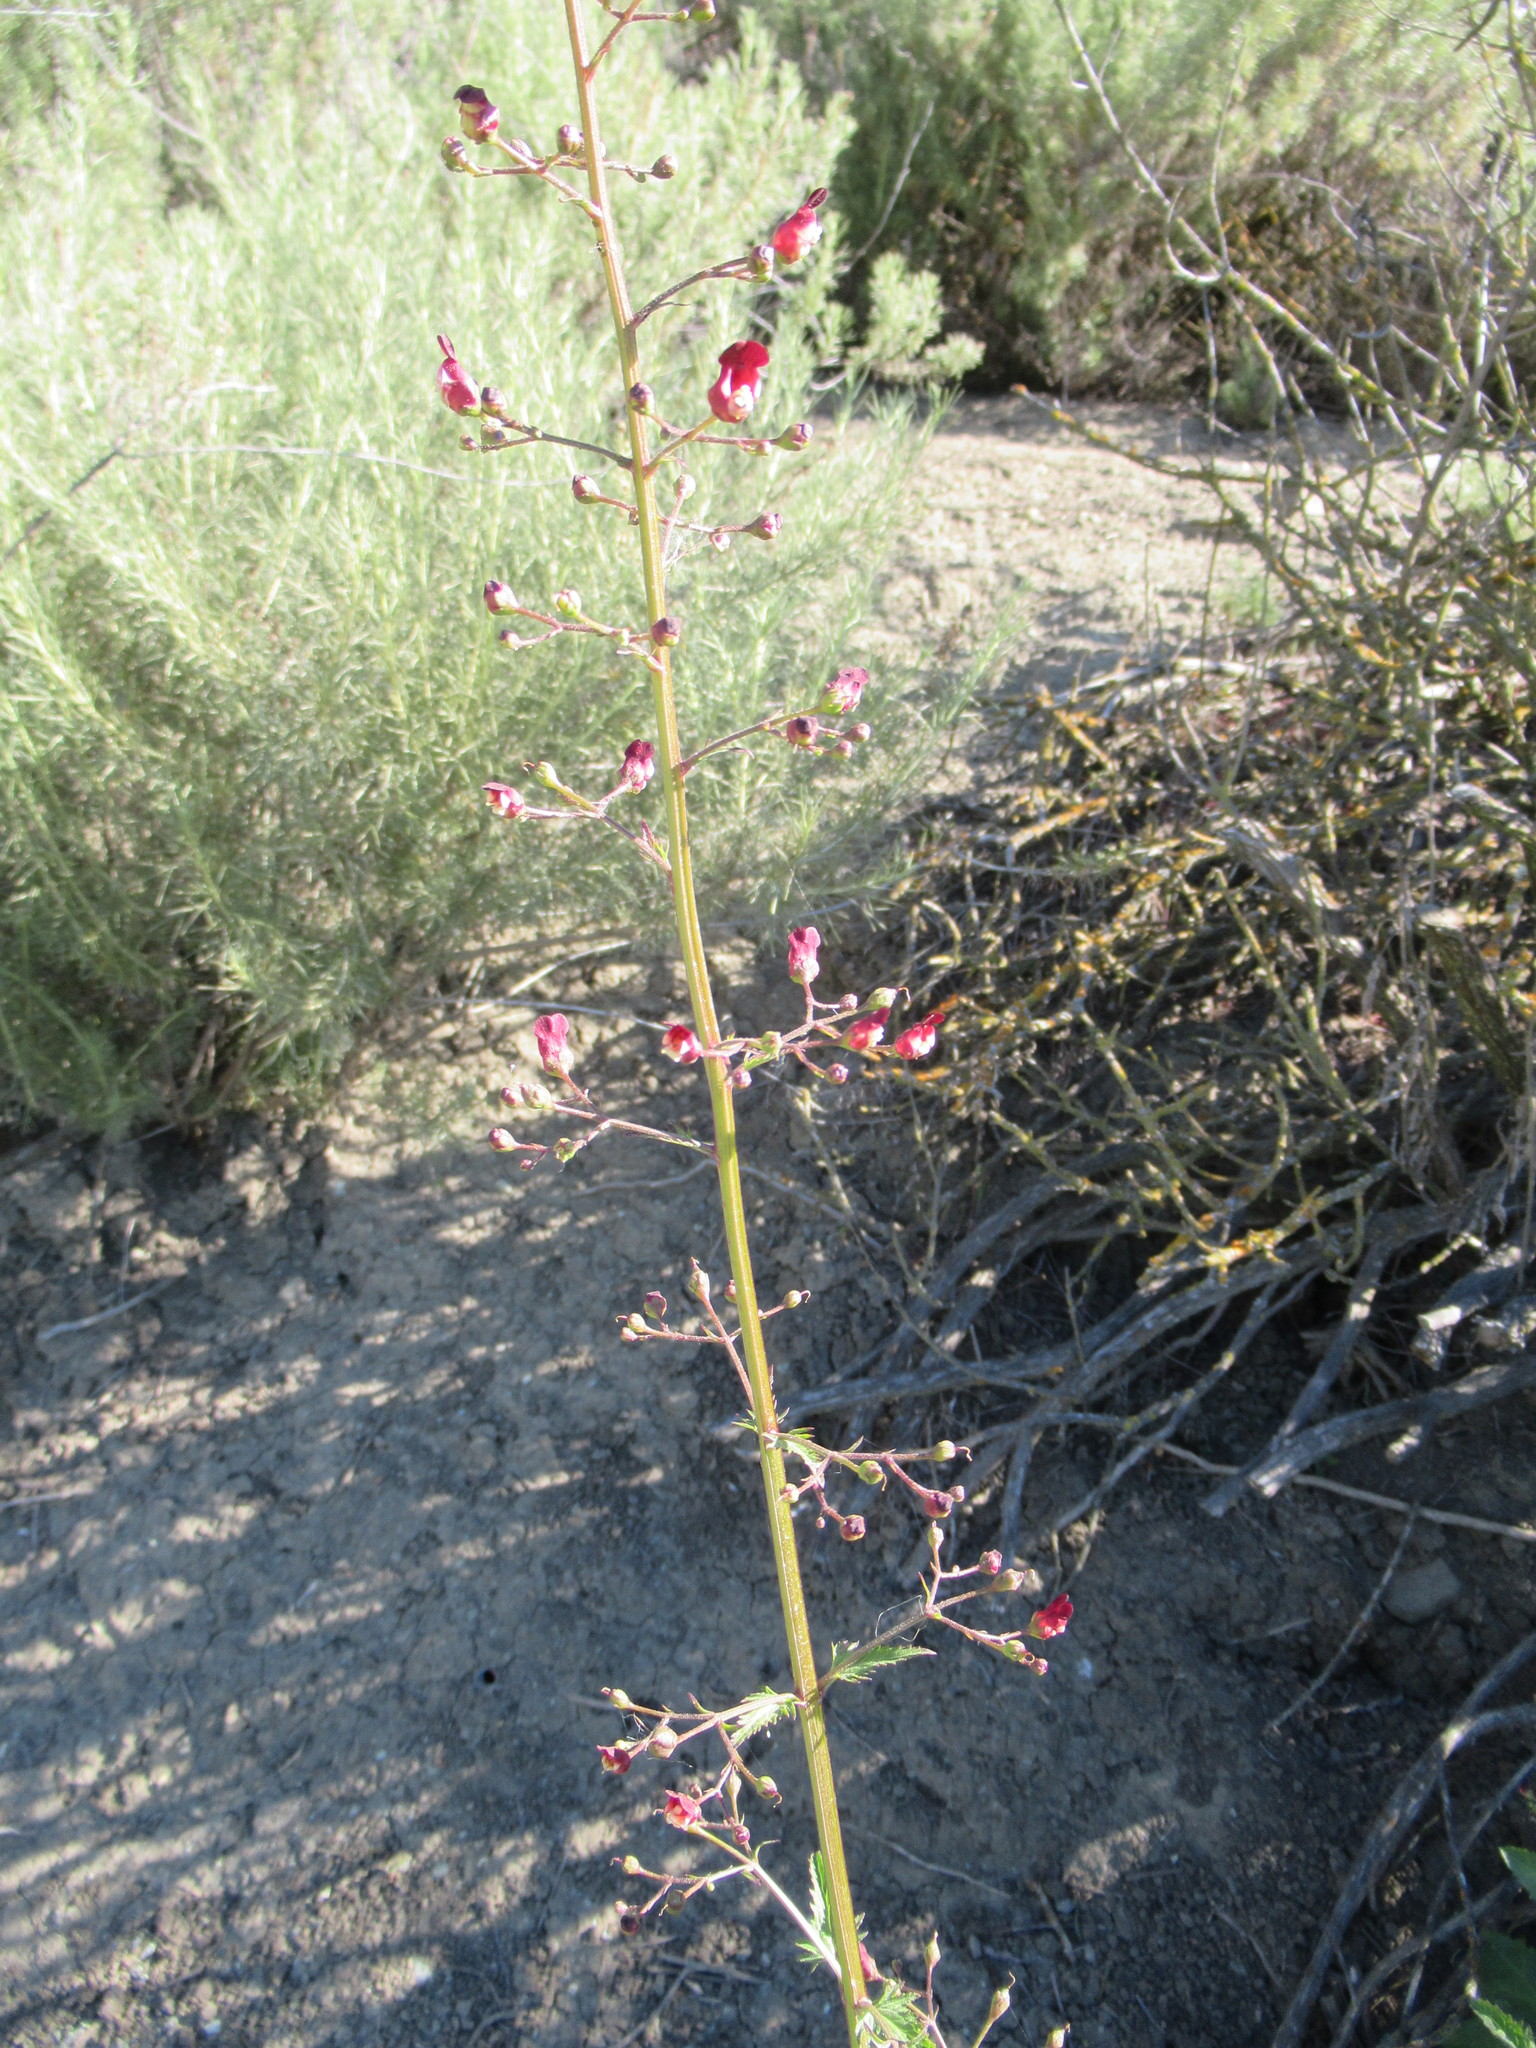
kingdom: Plantae
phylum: Tracheophyta
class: Magnoliopsida
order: Lamiales
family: Scrophulariaceae
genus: Scrophularia
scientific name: Scrophularia californica
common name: California figwort
